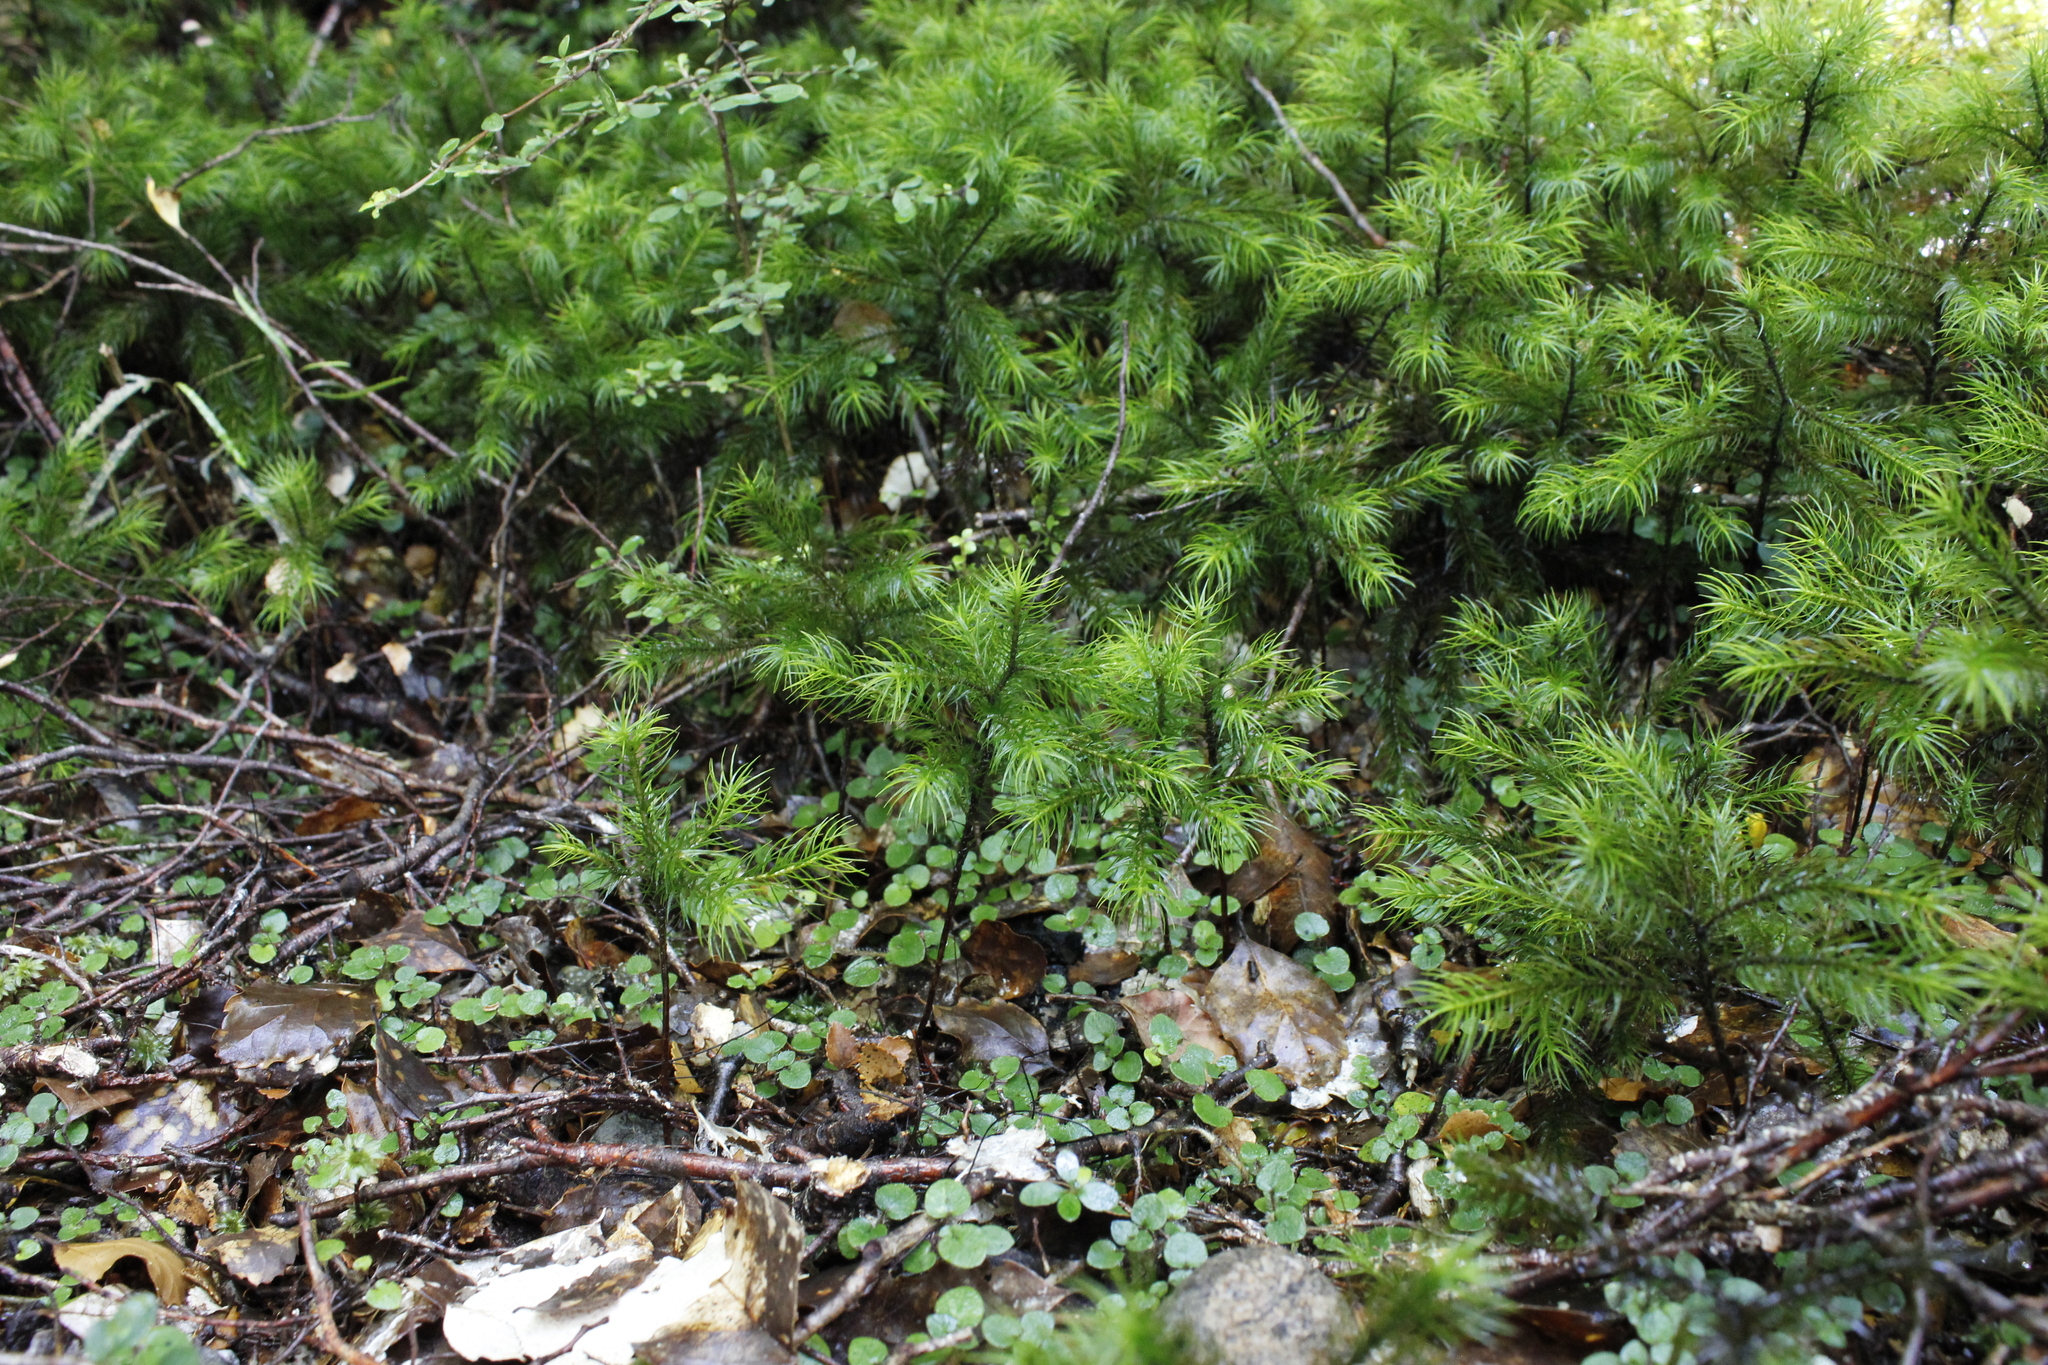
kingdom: Plantae
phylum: Bryophyta
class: Polytrichopsida
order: Polytrichales
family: Polytrichaceae
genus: Dendroligotrichum
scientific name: Dendroligotrichum tongariroense
